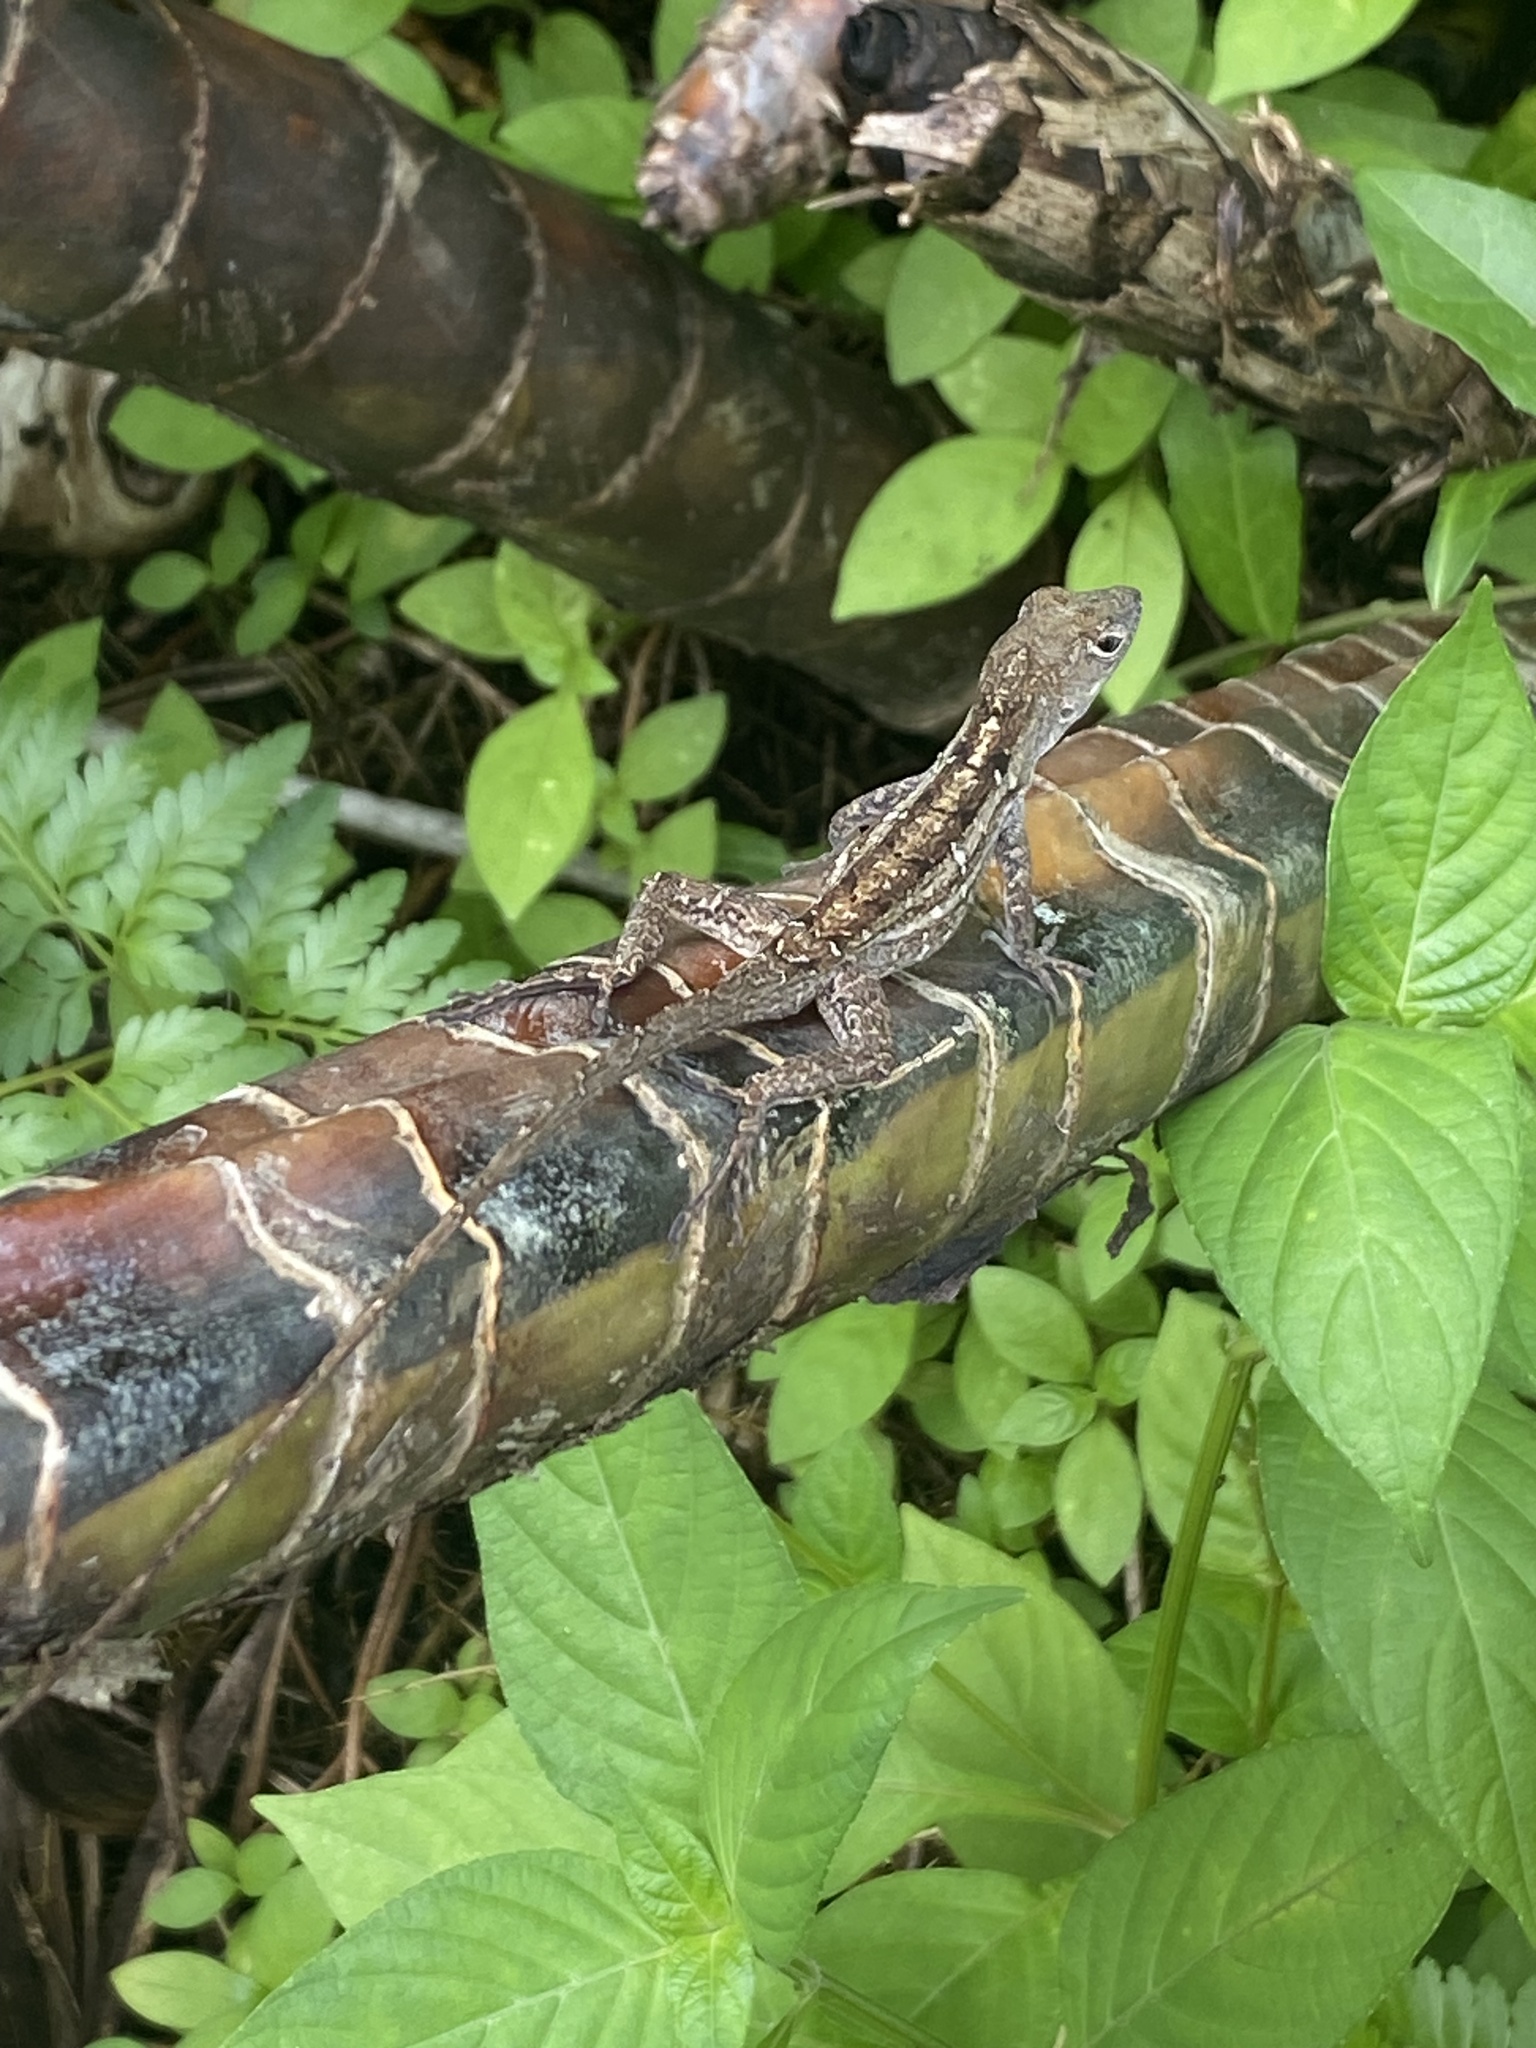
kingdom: Animalia
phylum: Chordata
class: Squamata
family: Dactyloidae
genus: Anolis
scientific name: Anolis sagrei
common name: Brown anole
